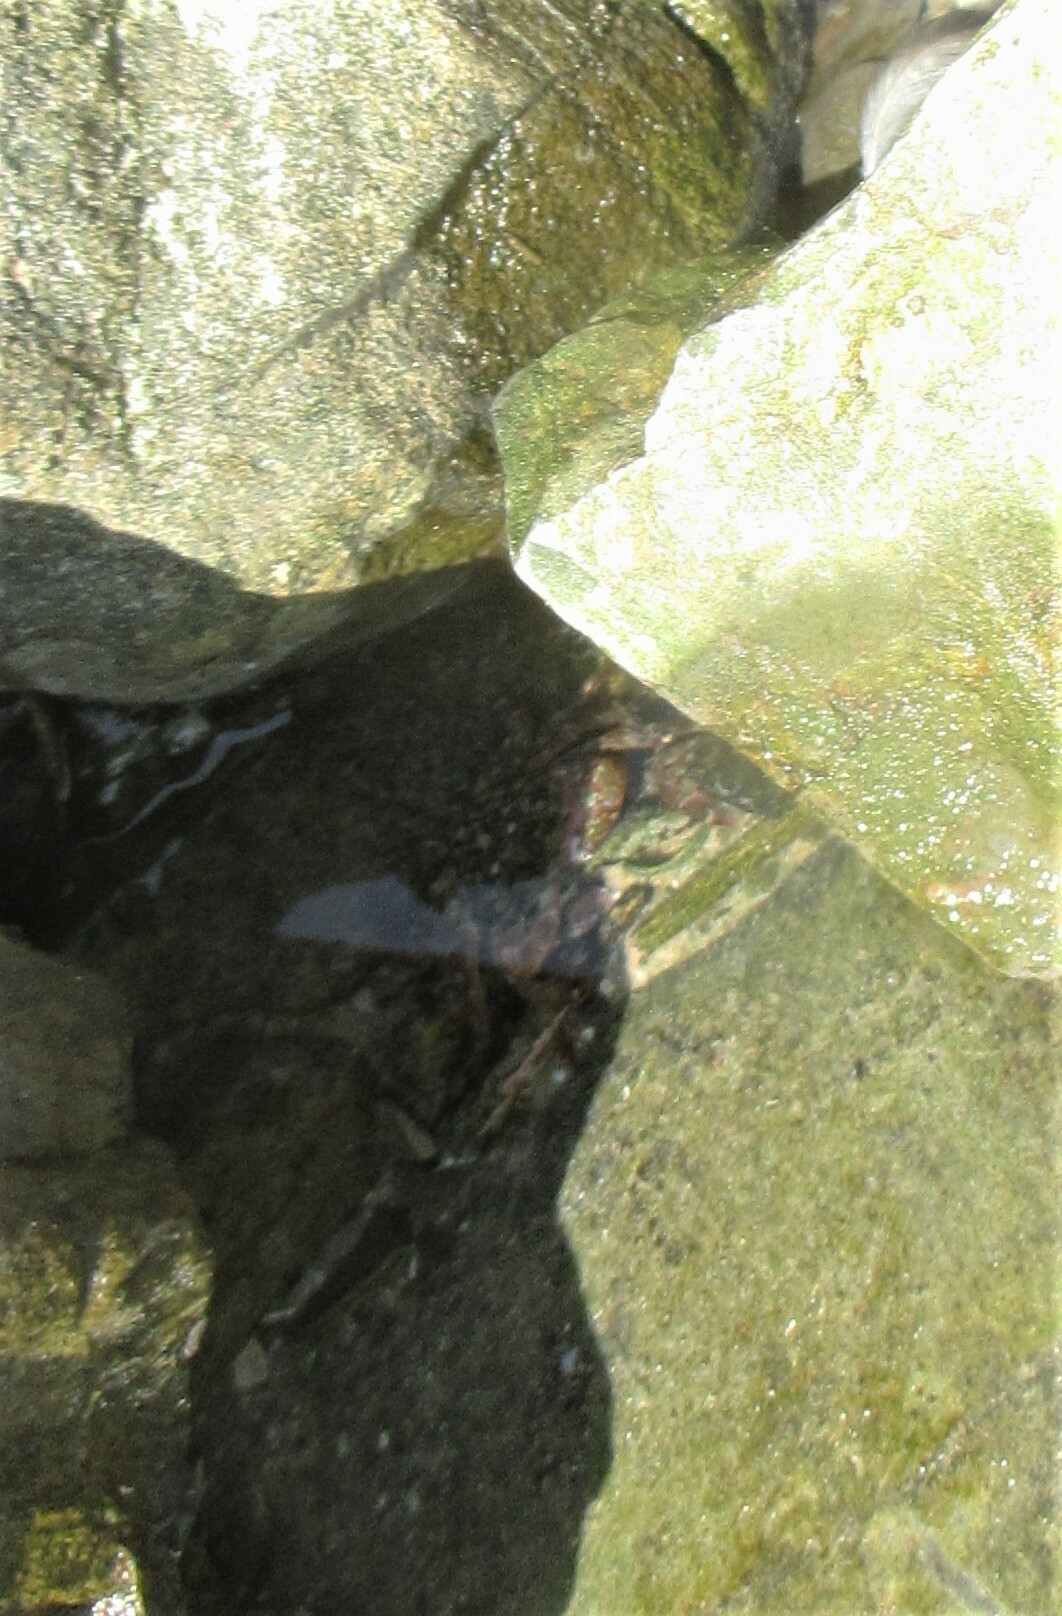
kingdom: Animalia
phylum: Arthropoda
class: Malacostraca
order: Decapoda
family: Grapsidae
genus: Pachygrapsus
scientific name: Pachygrapsus crassipes
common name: Striped shore crab
